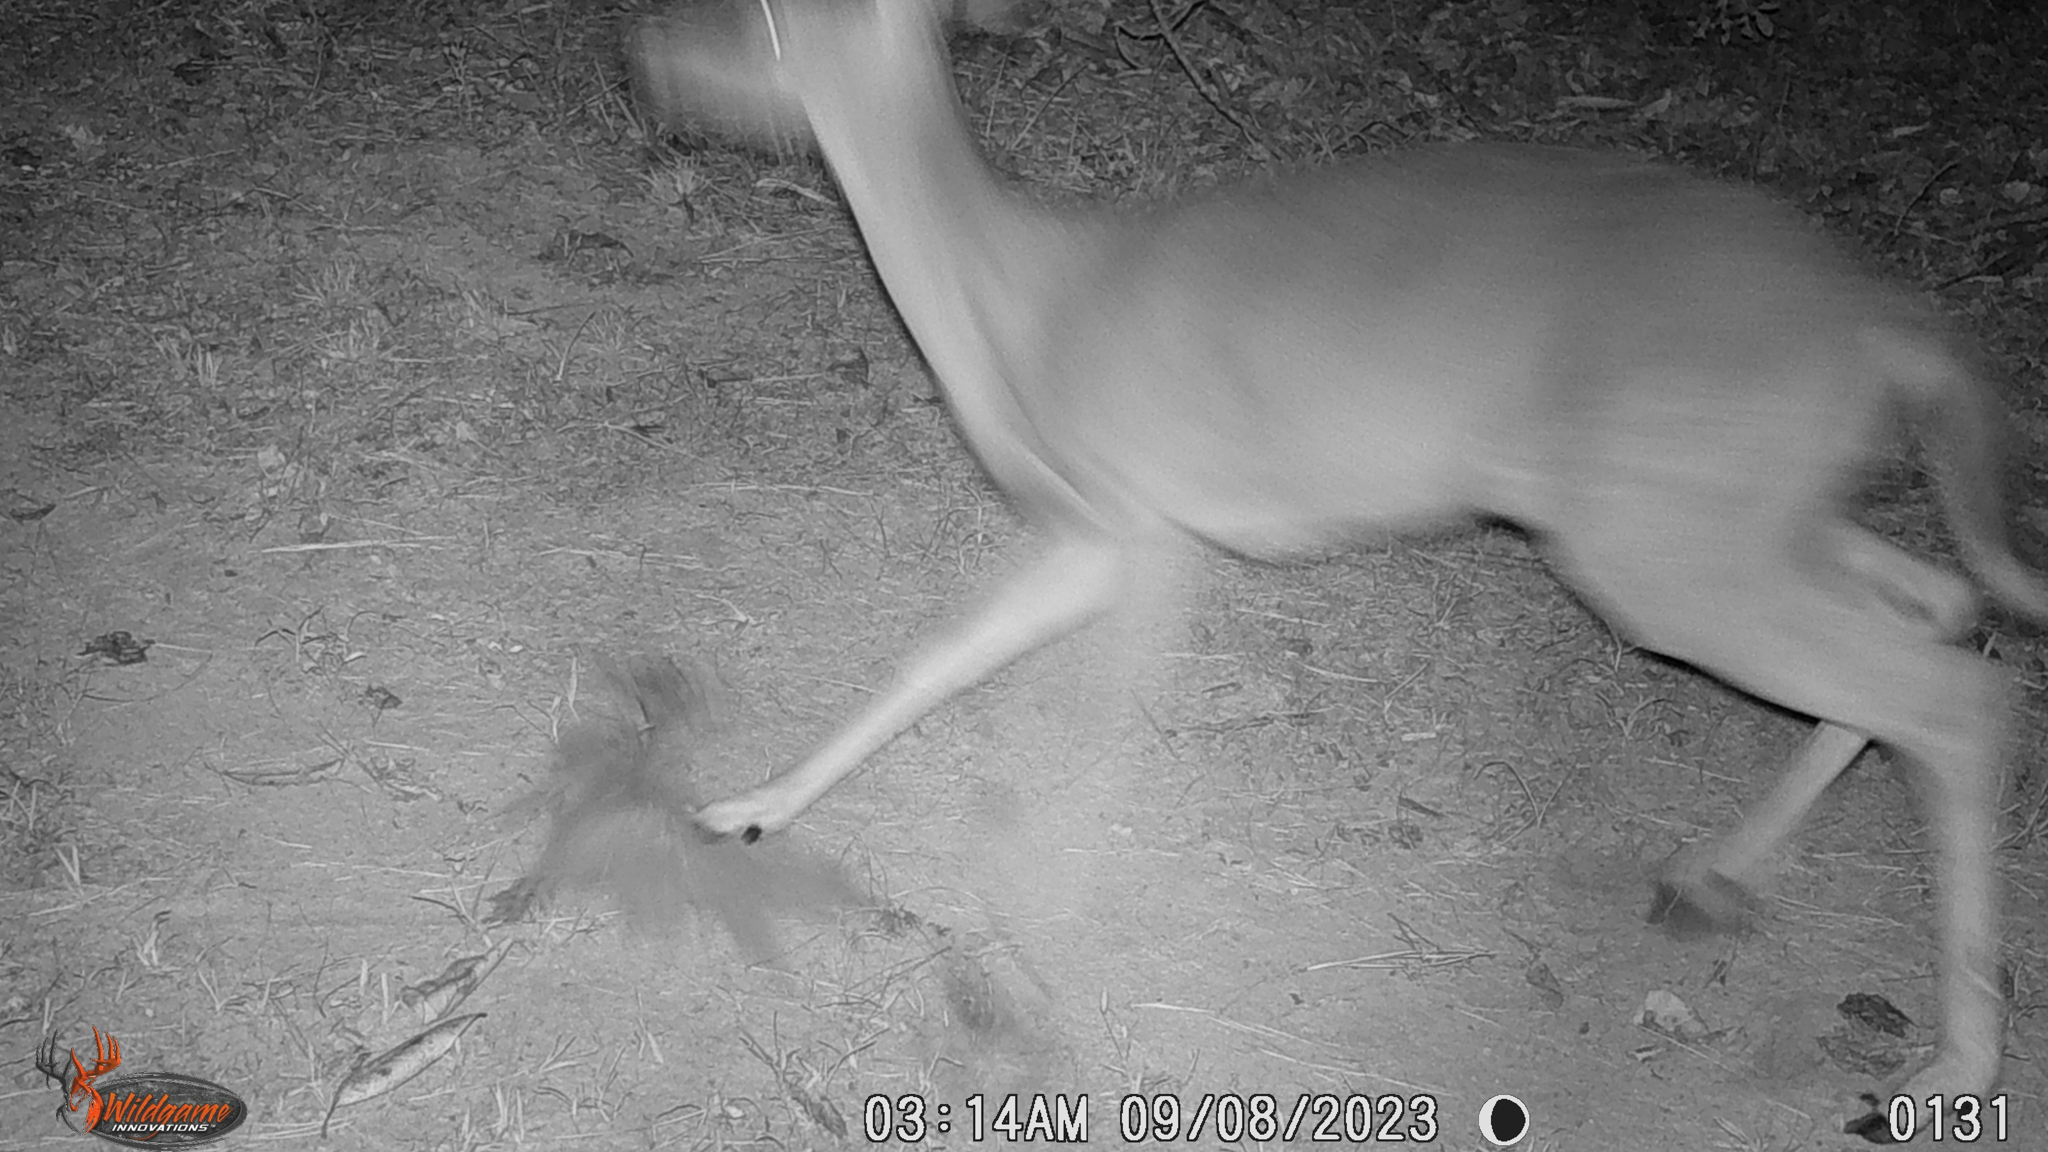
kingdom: Animalia
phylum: Chordata
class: Mammalia
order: Artiodactyla
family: Cervidae
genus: Odocoileus
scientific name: Odocoileus virginianus
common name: White-tailed deer
